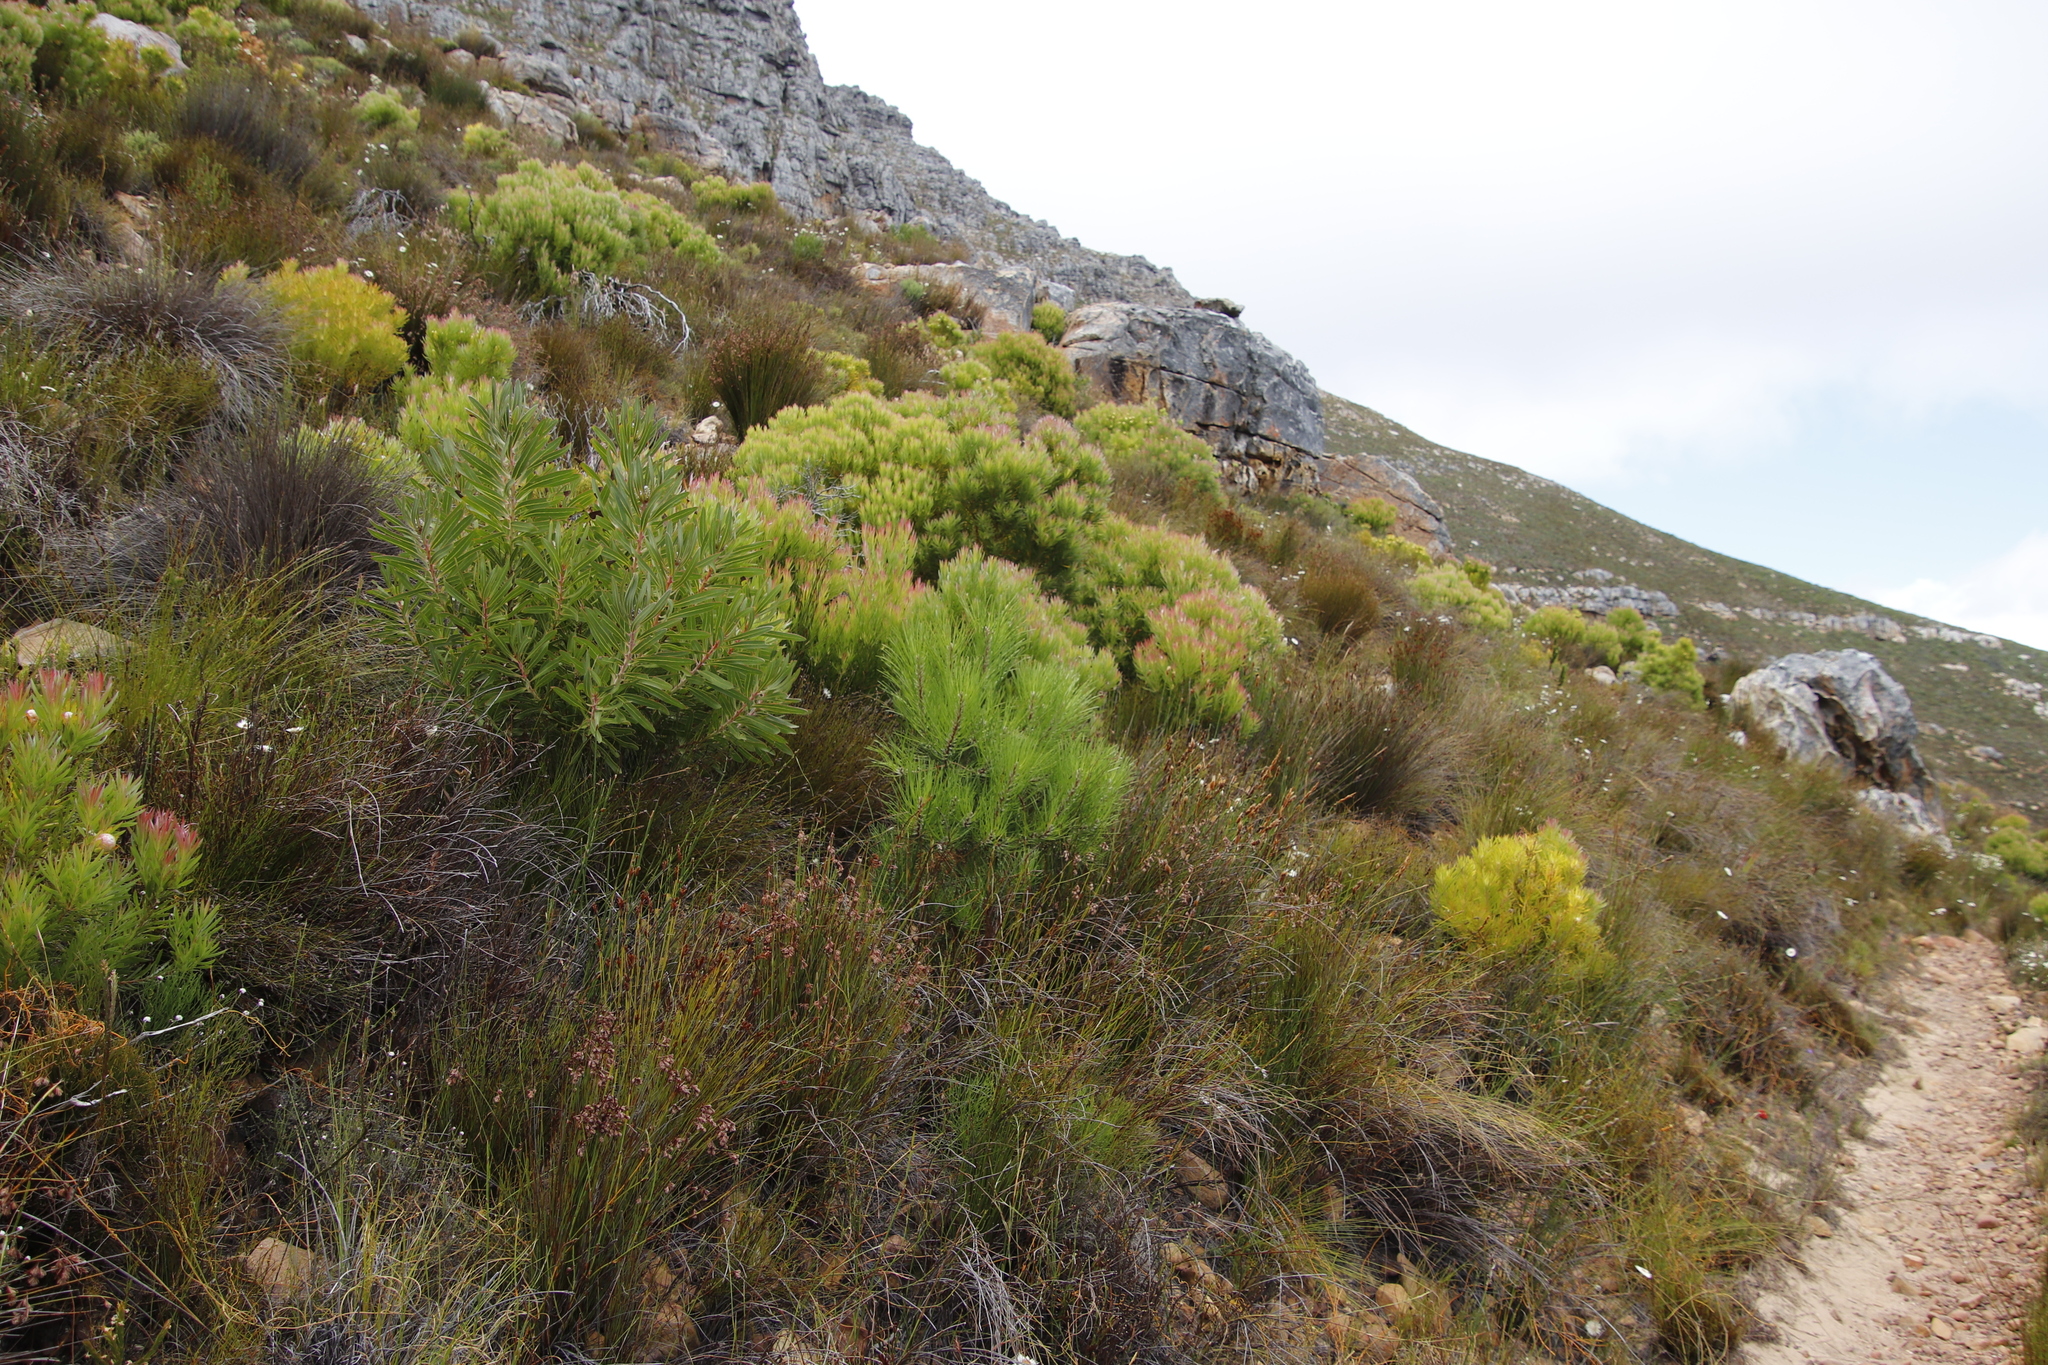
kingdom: Plantae
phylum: Tracheophyta
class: Pinopsida
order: Pinales
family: Pinaceae
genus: Pinus
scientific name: Pinus pinaster
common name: Maritime pine
